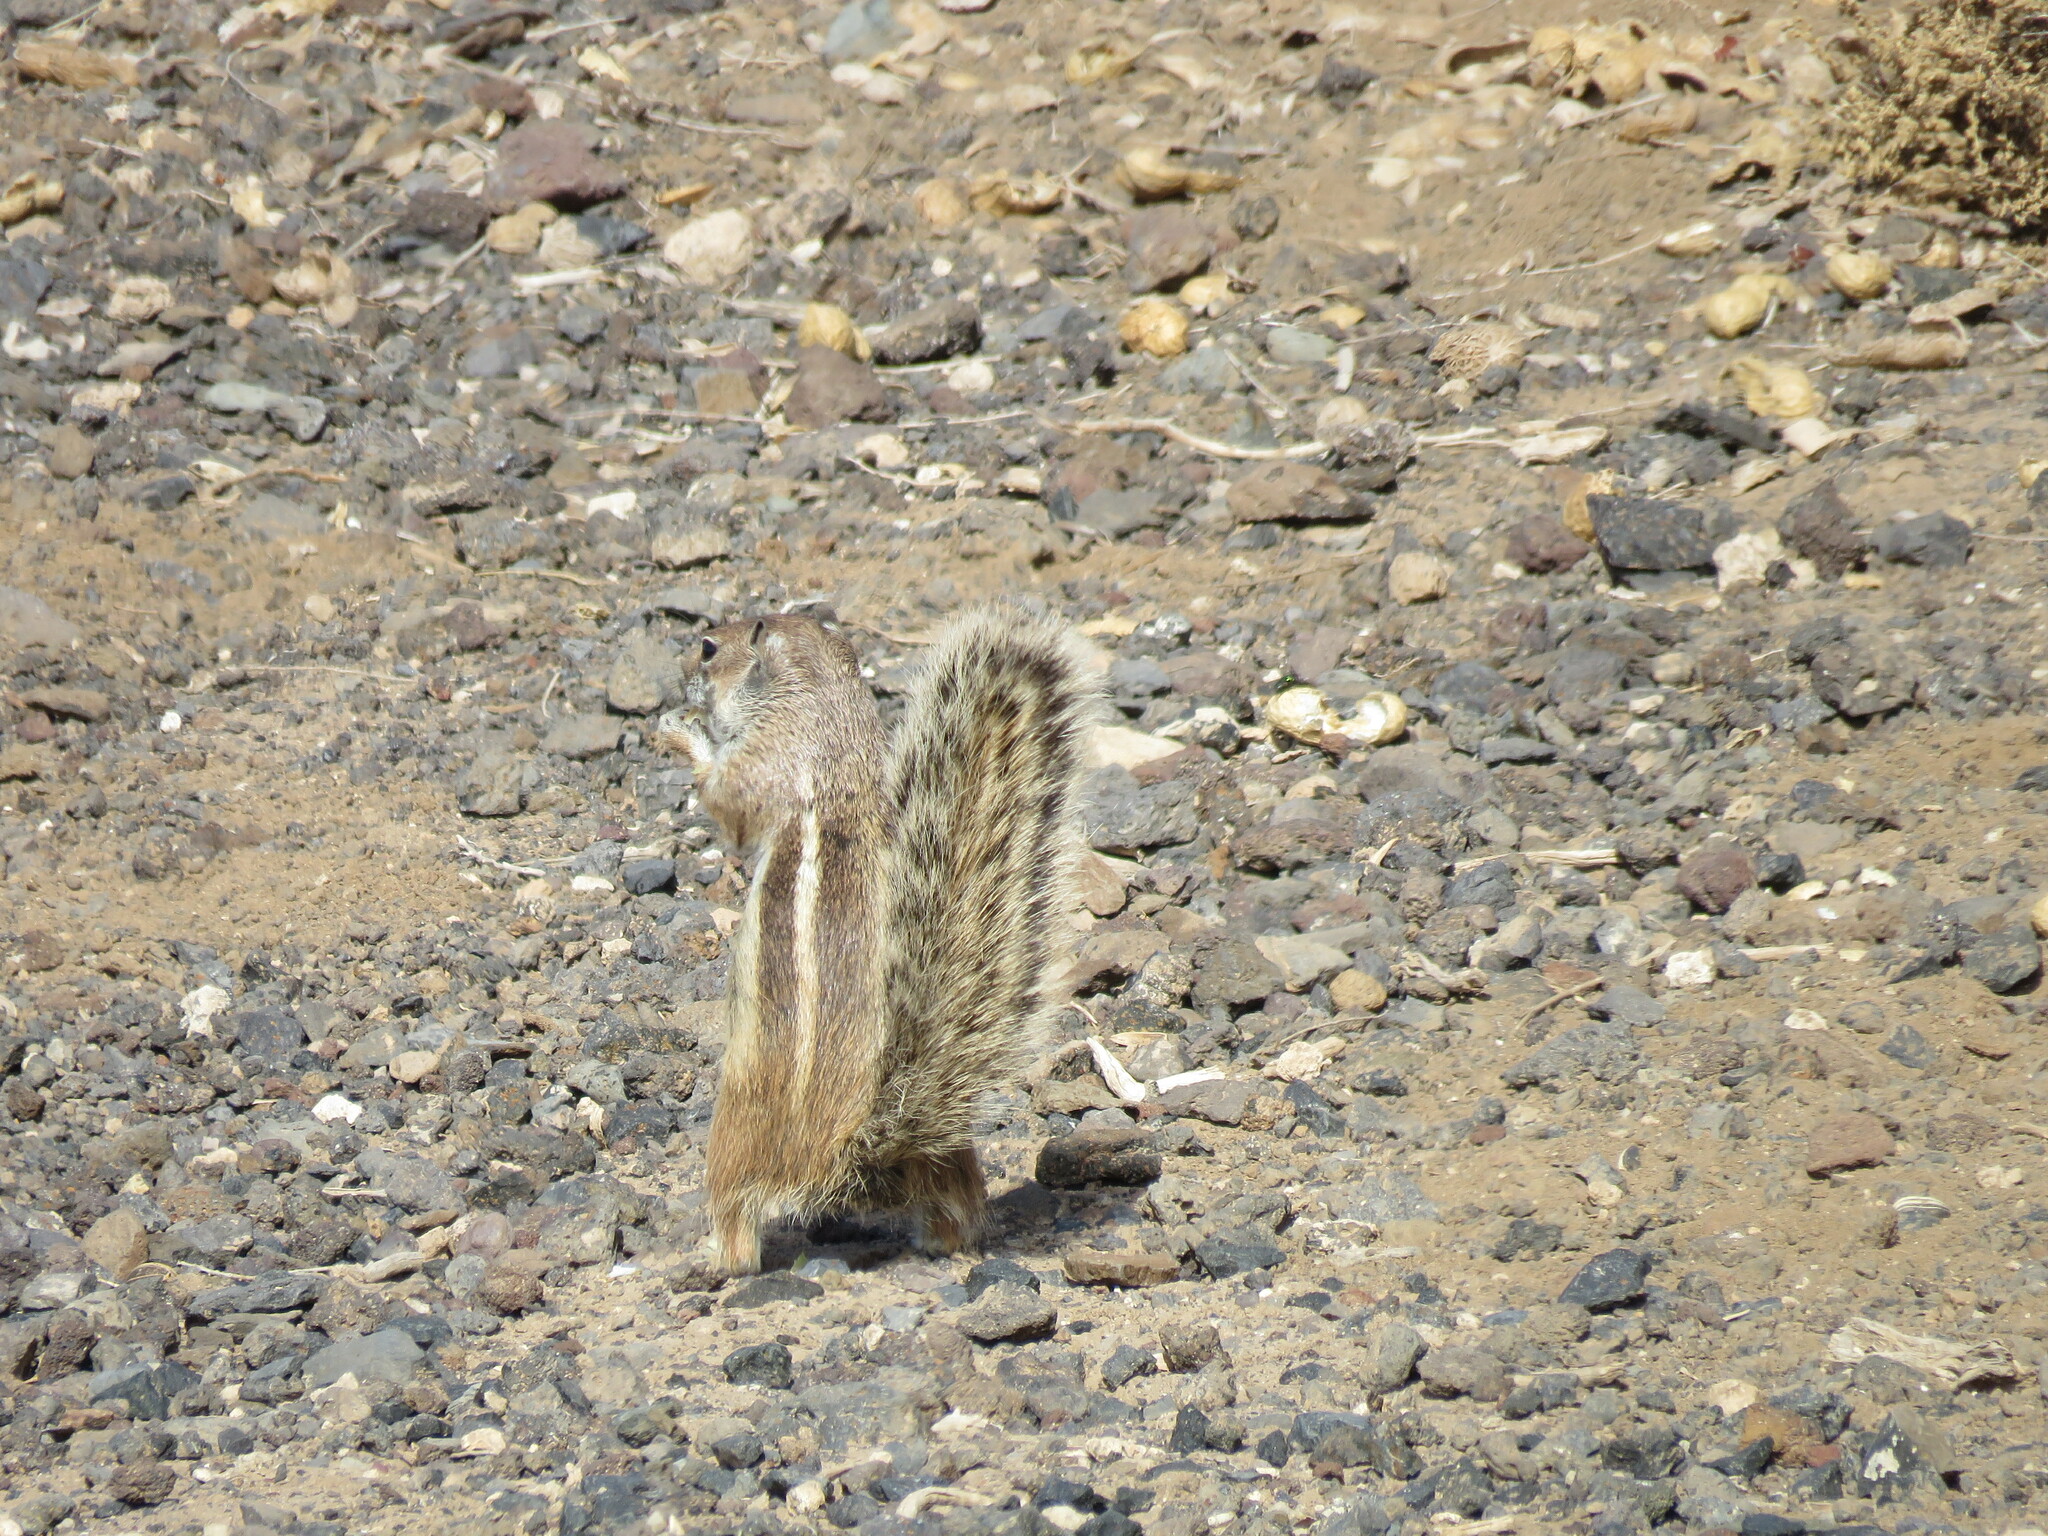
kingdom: Animalia
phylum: Chordata
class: Mammalia
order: Rodentia
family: Sciuridae
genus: Atlantoxerus
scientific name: Atlantoxerus getulus
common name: Barbary ground squirrel
